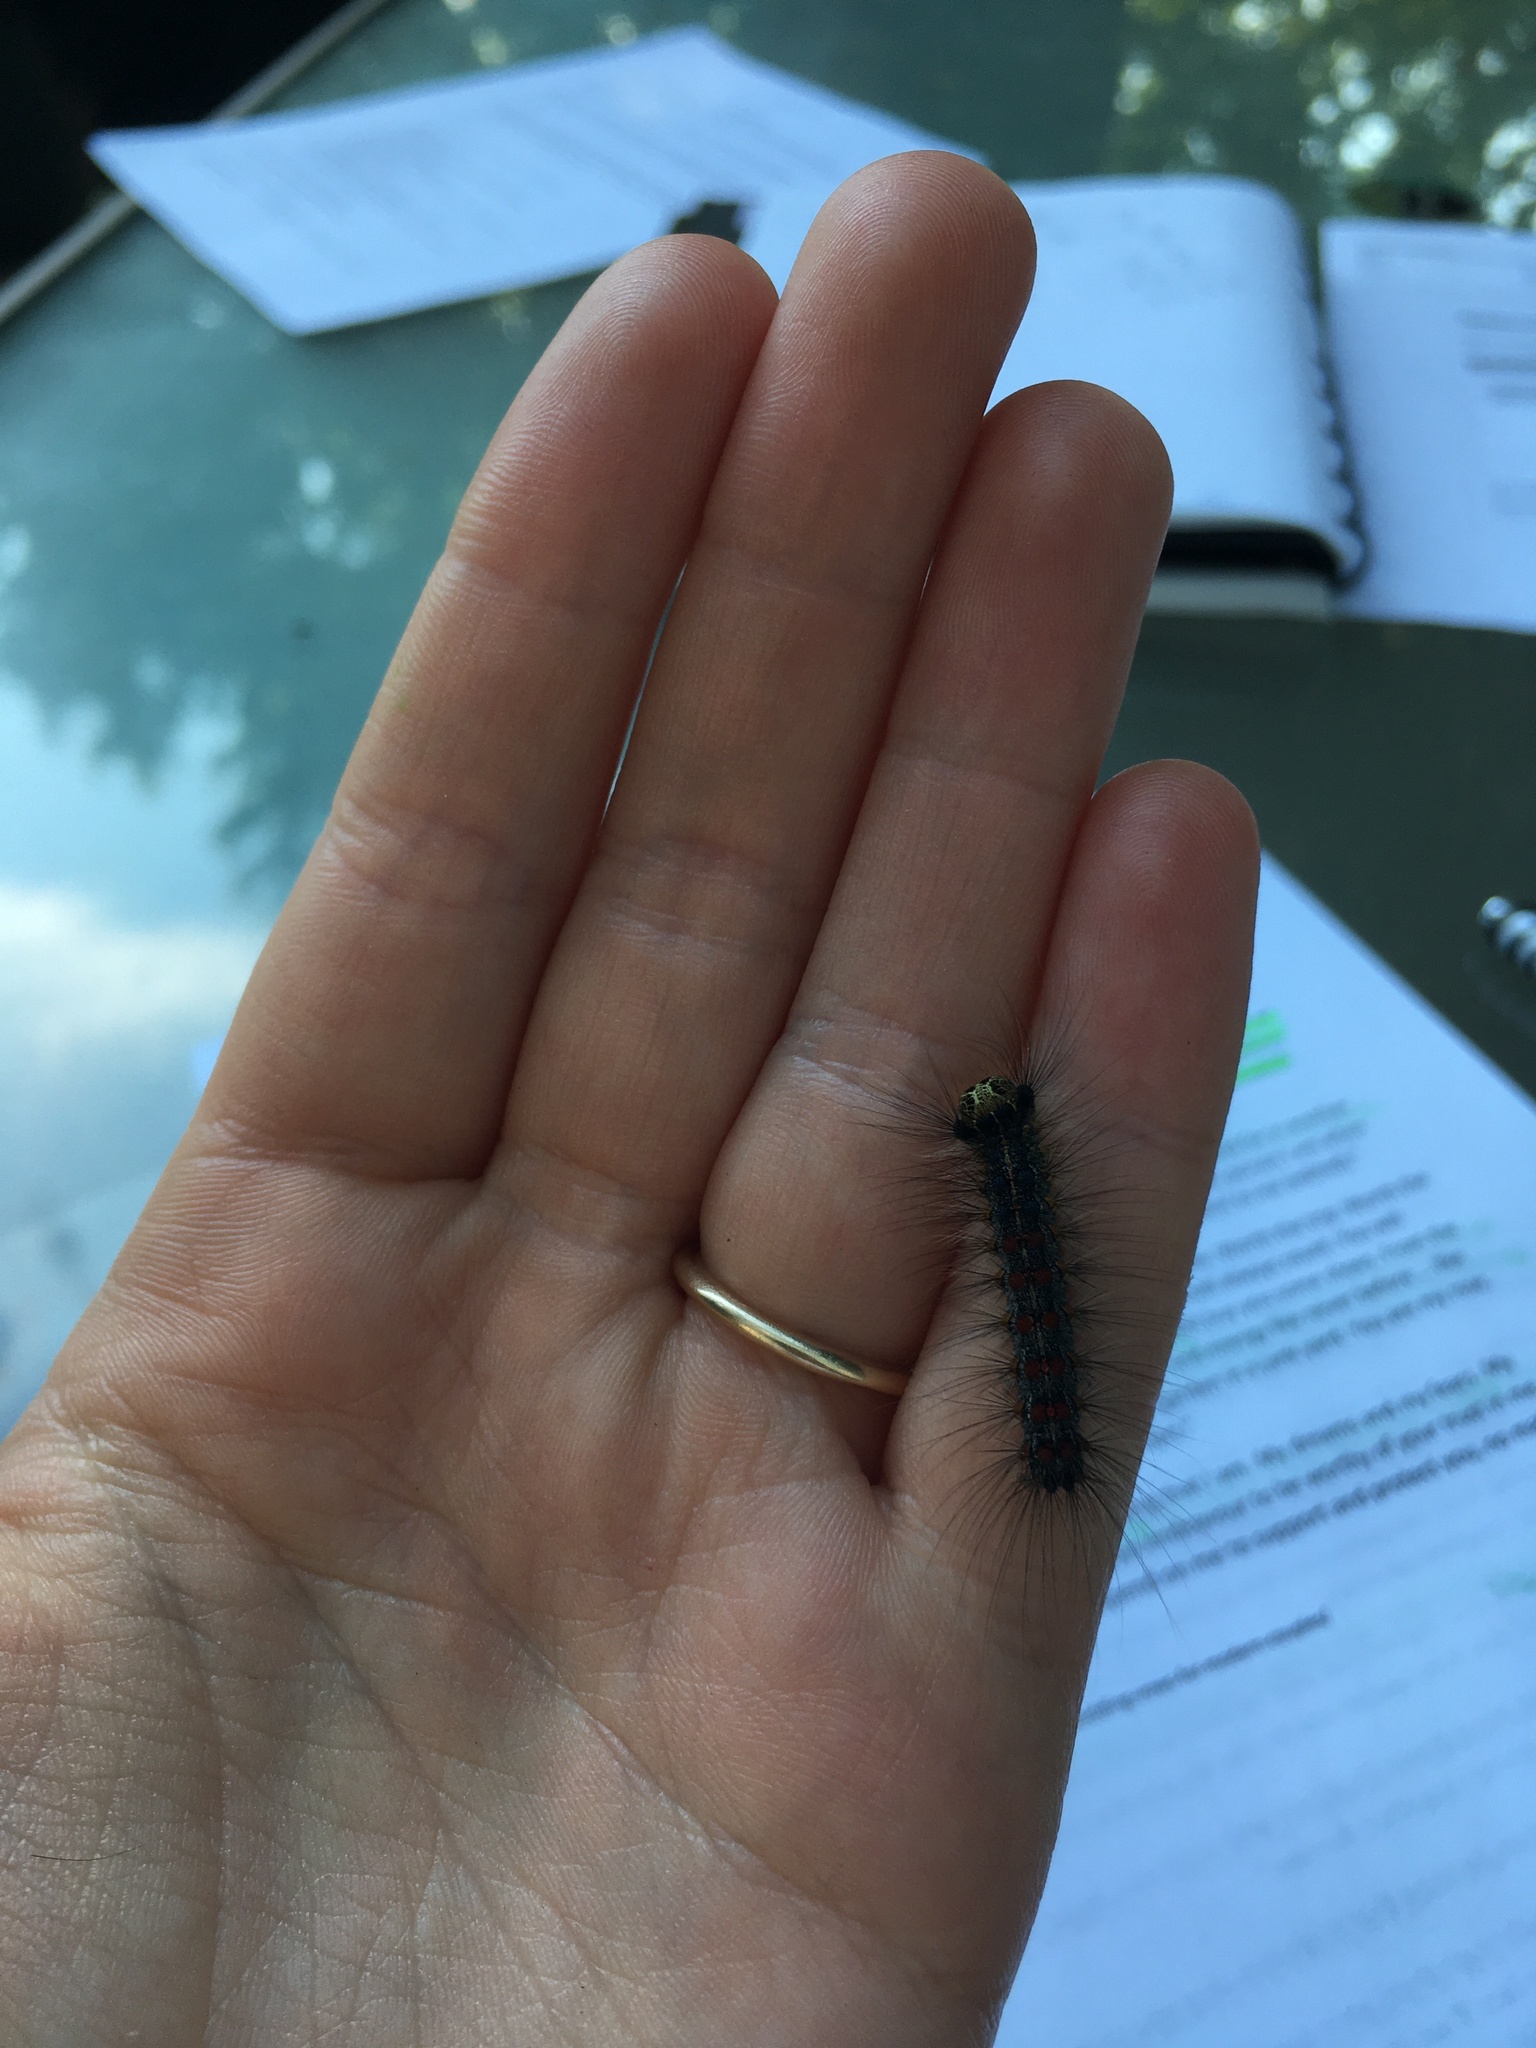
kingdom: Animalia
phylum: Arthropoda
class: Insecta
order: Lepidoptera
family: Erebidae
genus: Lymantria
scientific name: Lymantria dispar
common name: Gypsy moth
